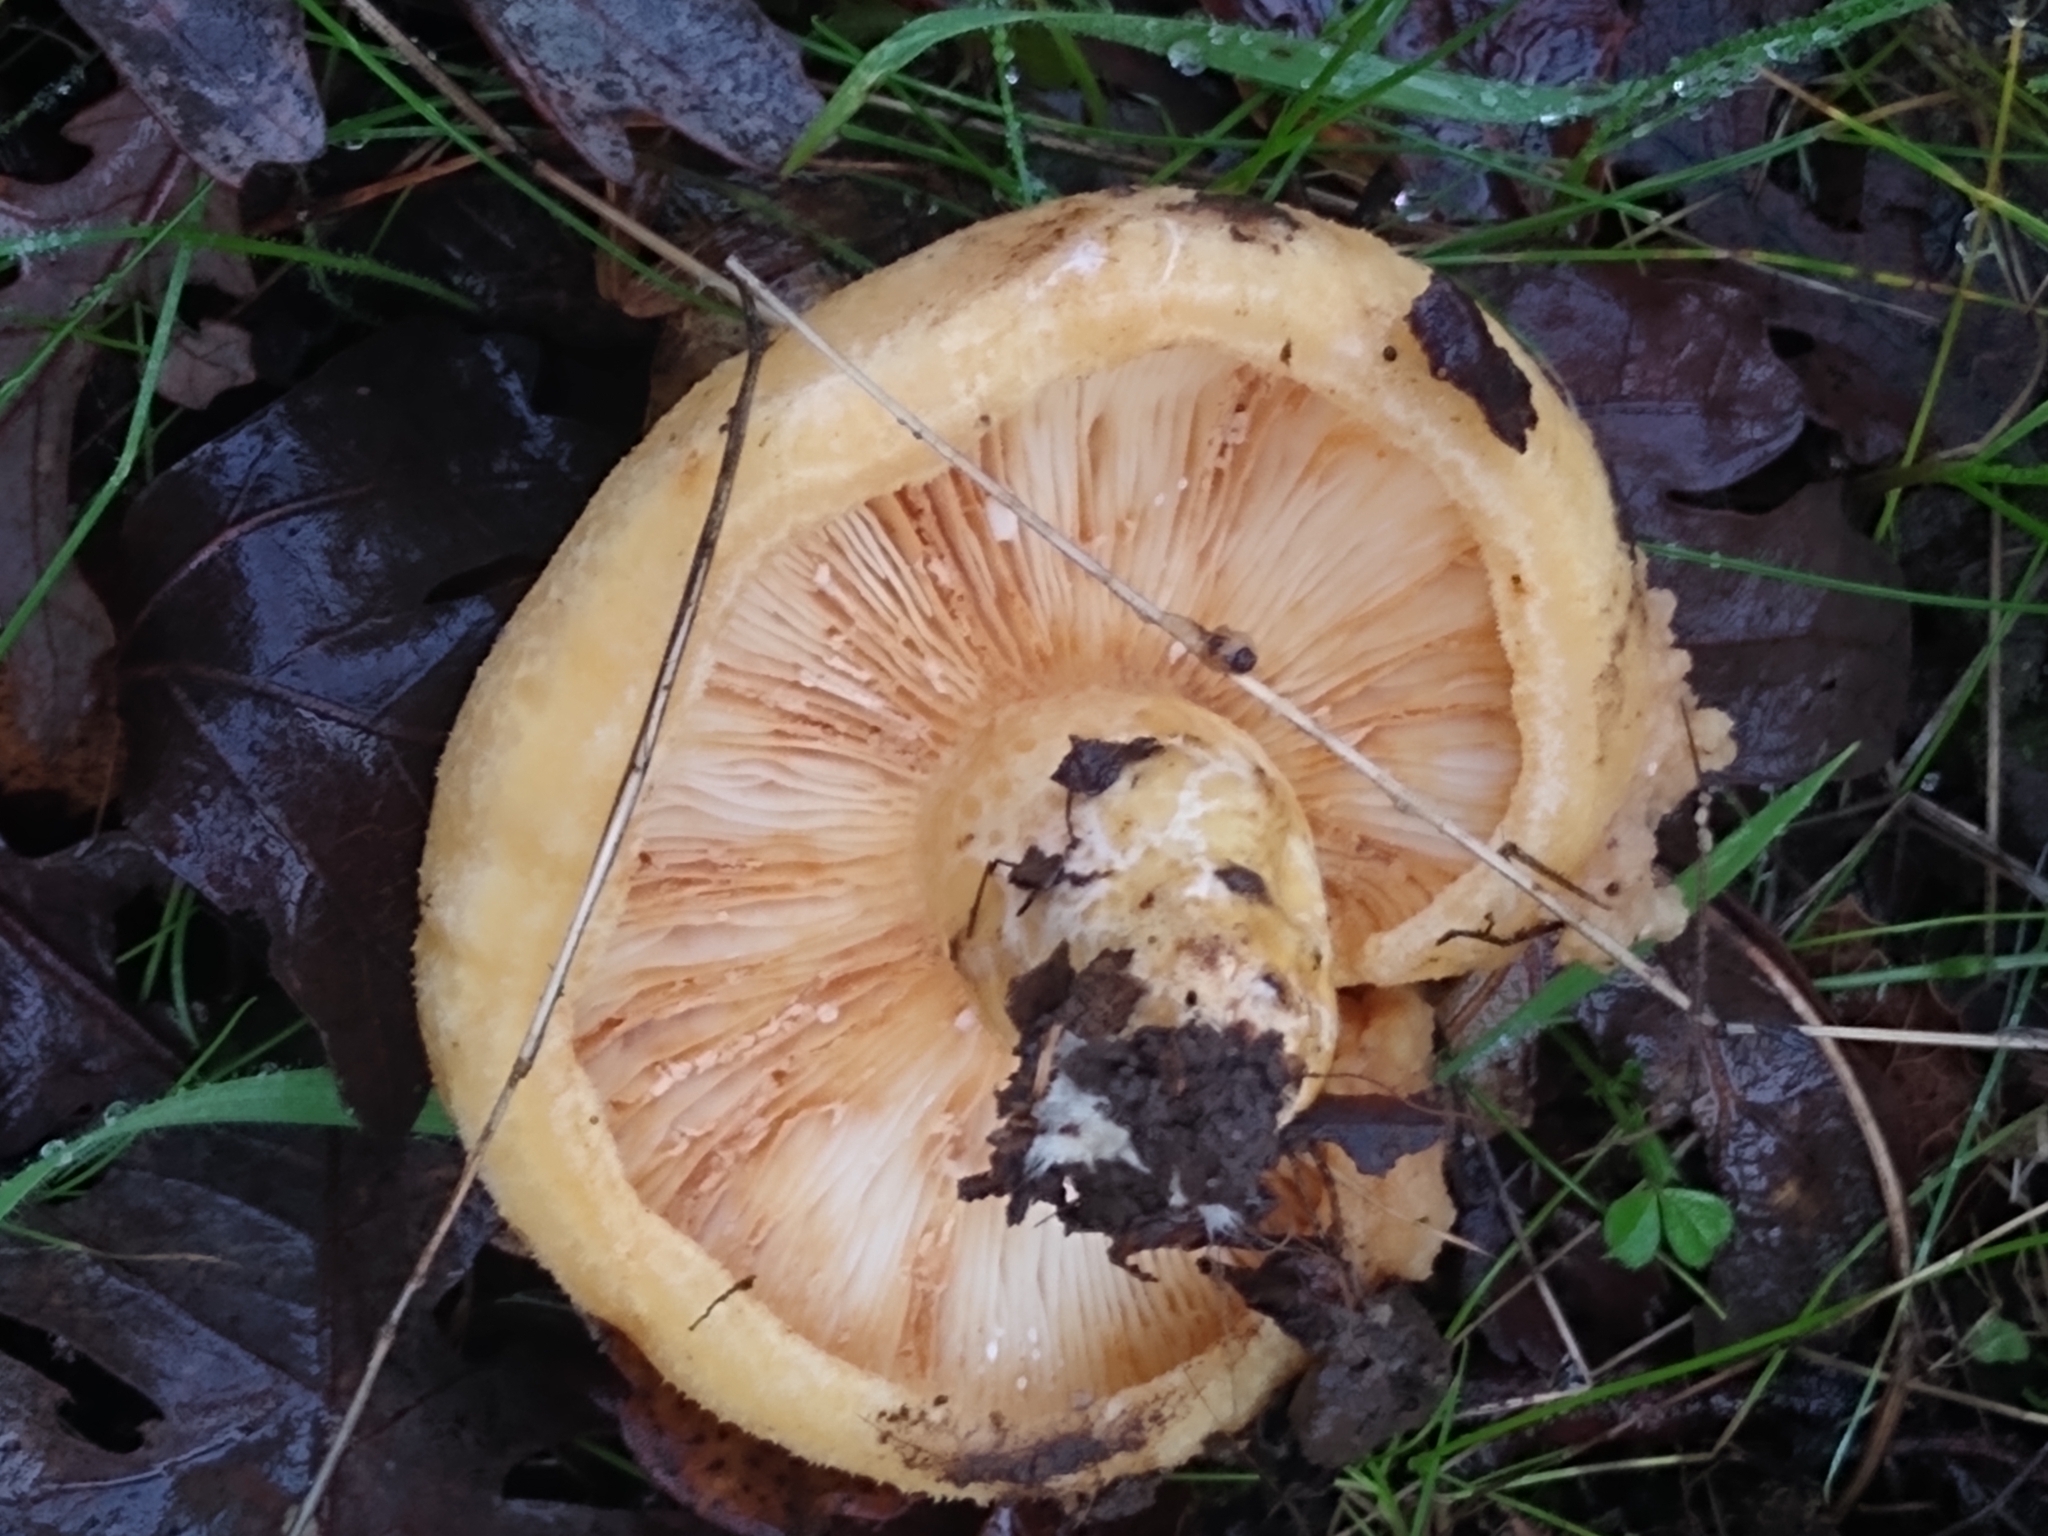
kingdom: Fungi
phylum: Basidiomycota
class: Agaricomycetes
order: Russulales
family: Russulaceae
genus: Lactarius
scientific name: Lactarius alnicola
